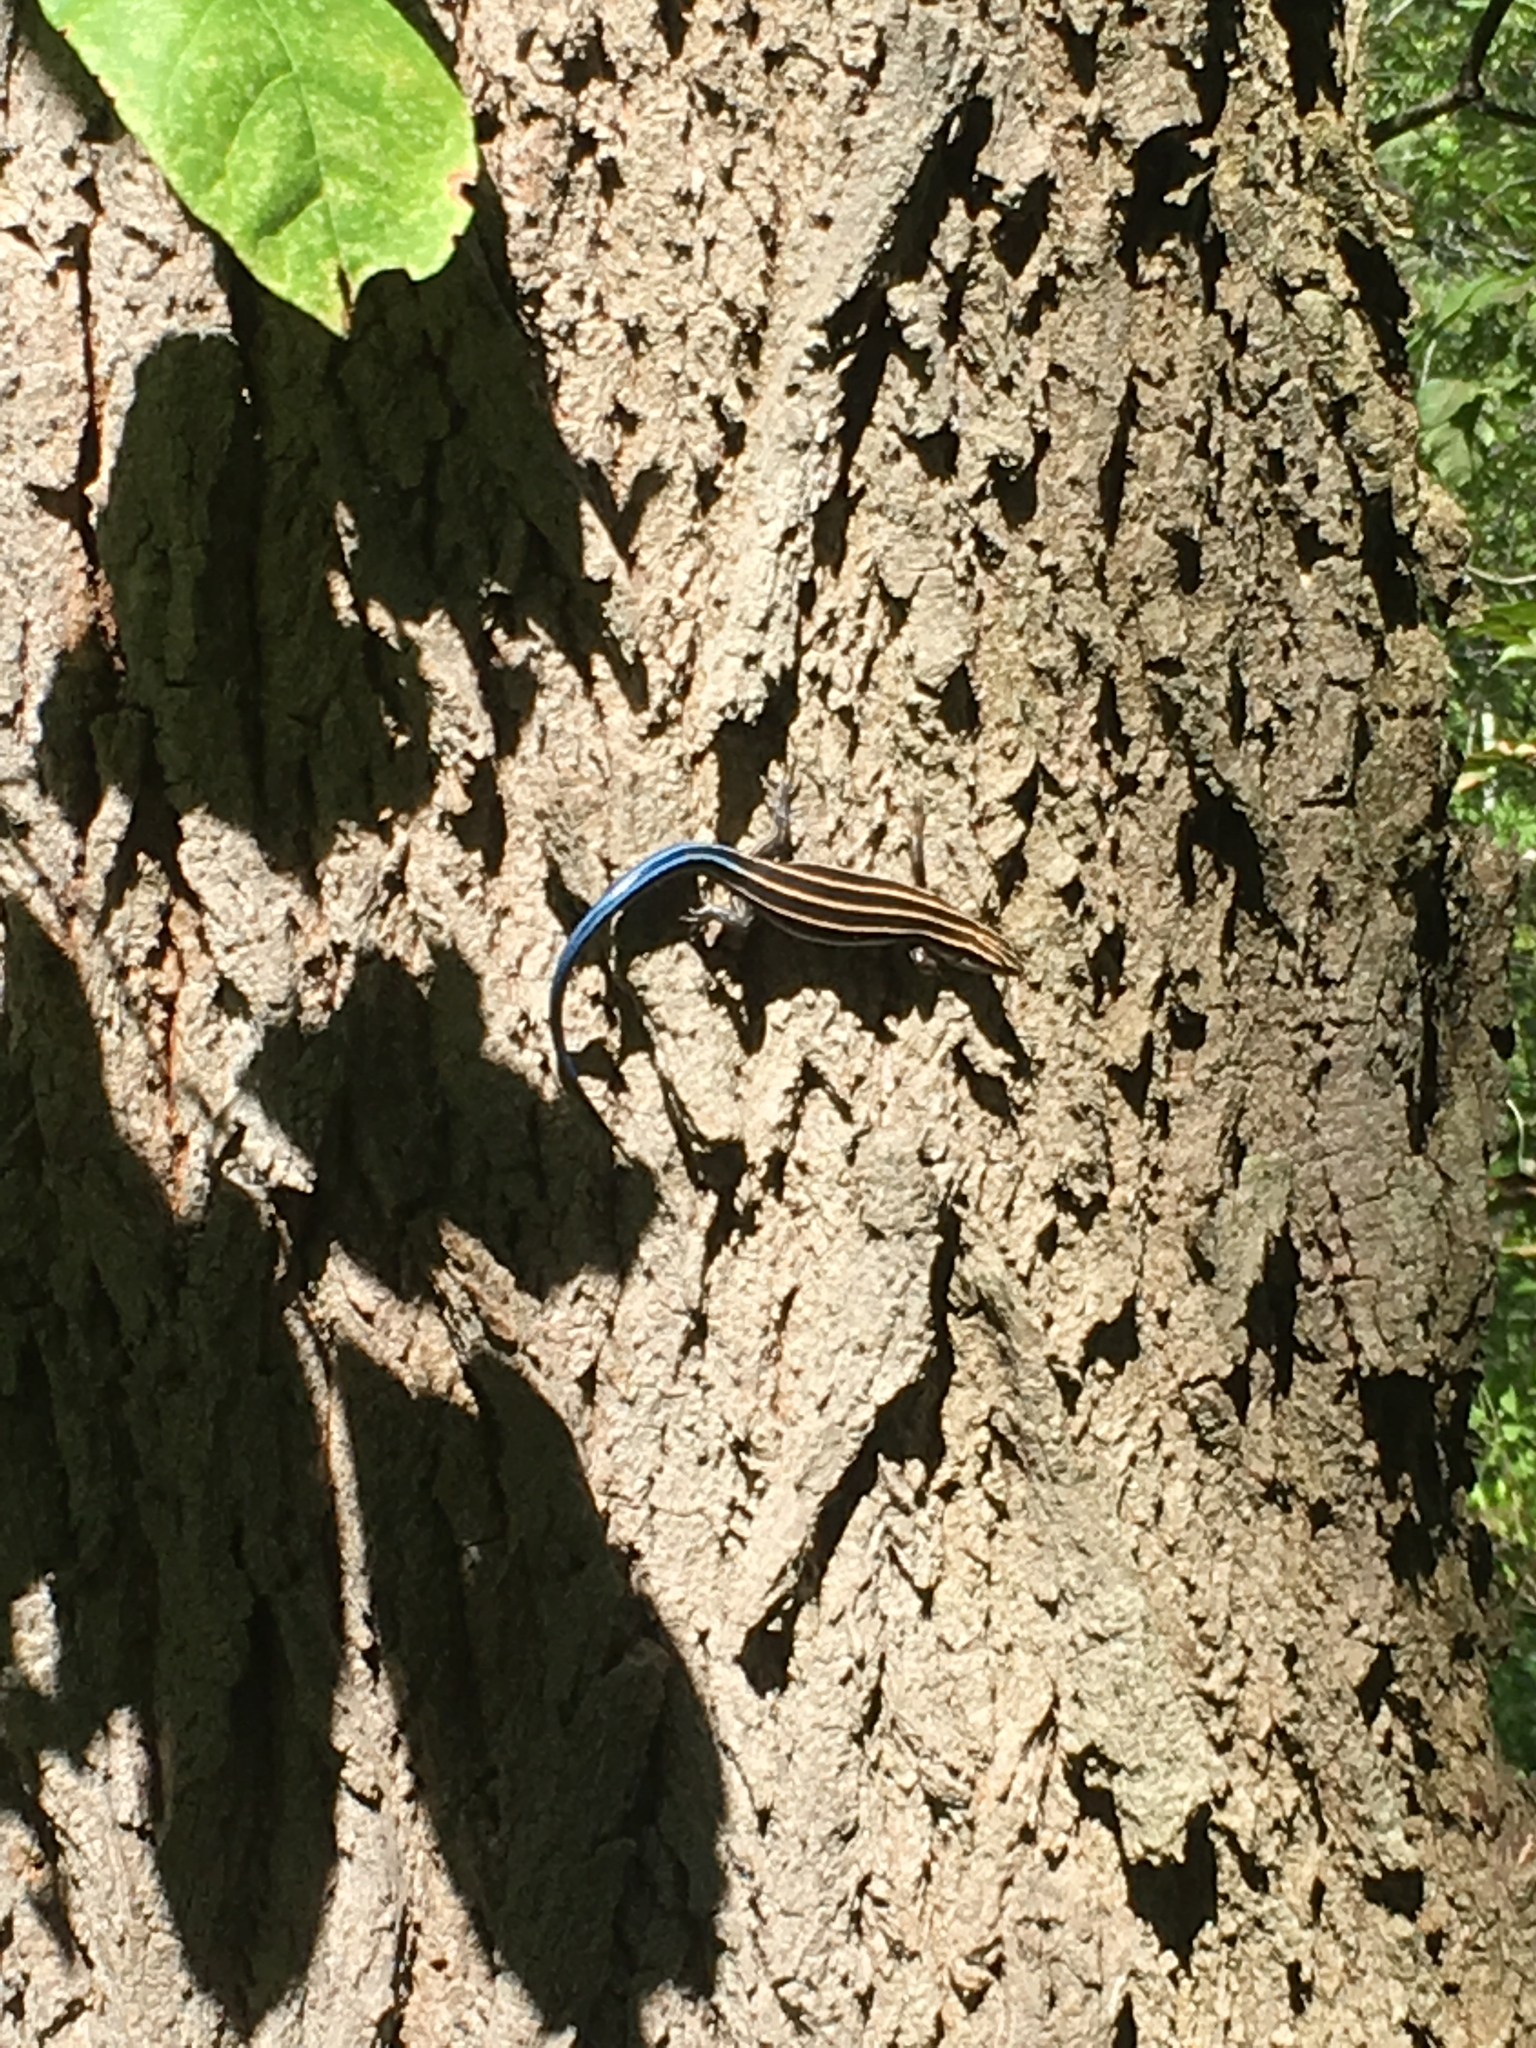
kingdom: Animalia
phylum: Chordata
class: Squamata
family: Scincidae
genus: Plestiodon
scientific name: Plestiodon fasciatus
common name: Five-lined skink
